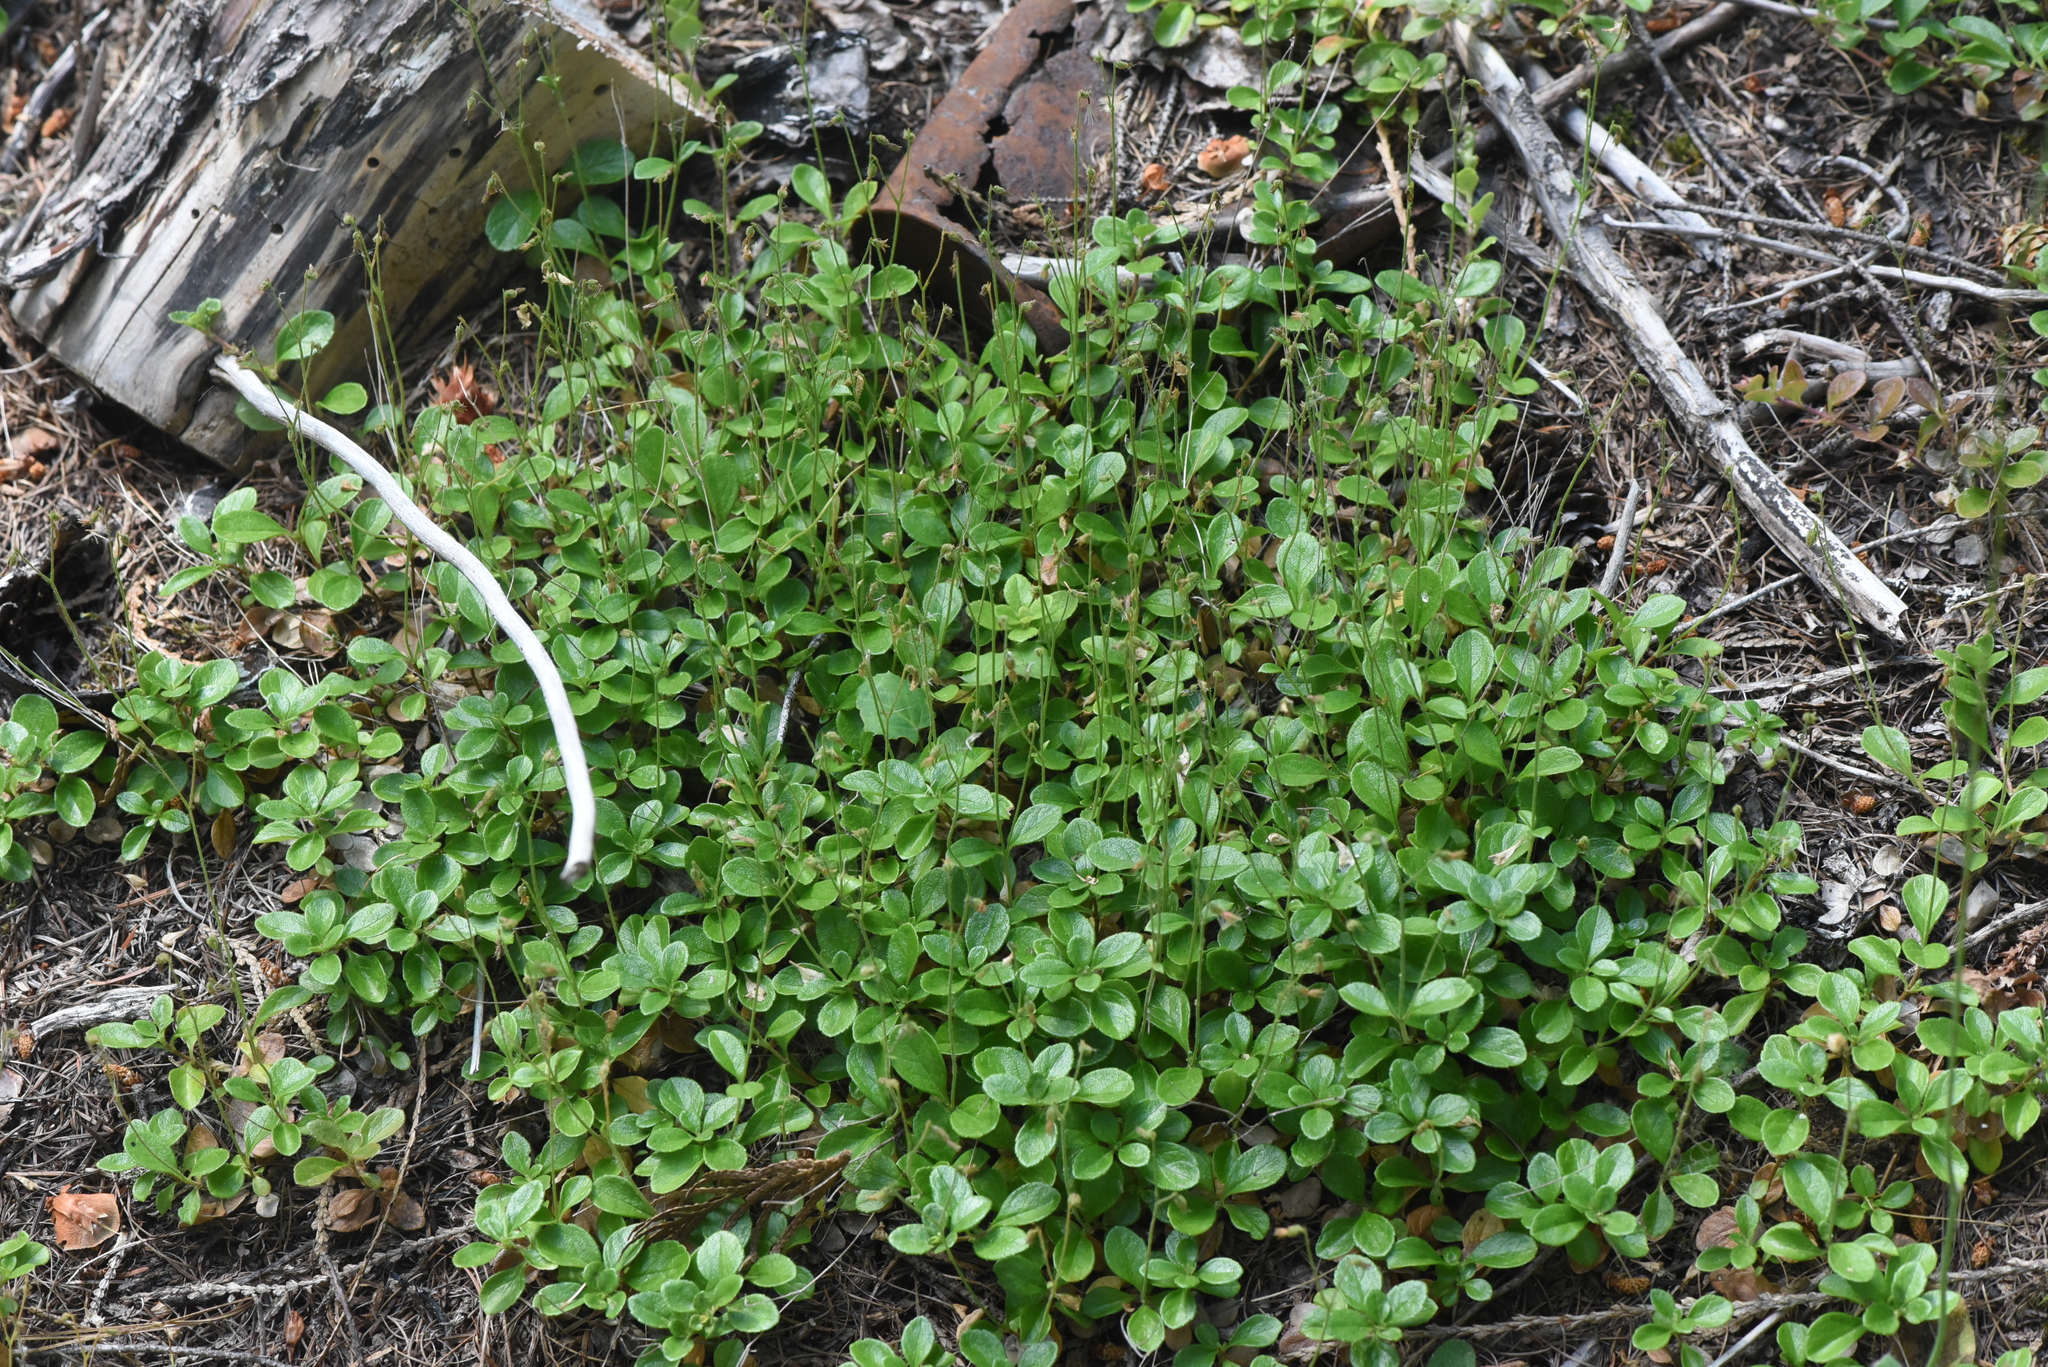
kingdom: Plantae
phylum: Tracheophyta
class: Magnoliopsida
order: Dipsacales
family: Caprifoliaceae
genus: Linnaea
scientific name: Linnaea borealis
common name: Twinflower
